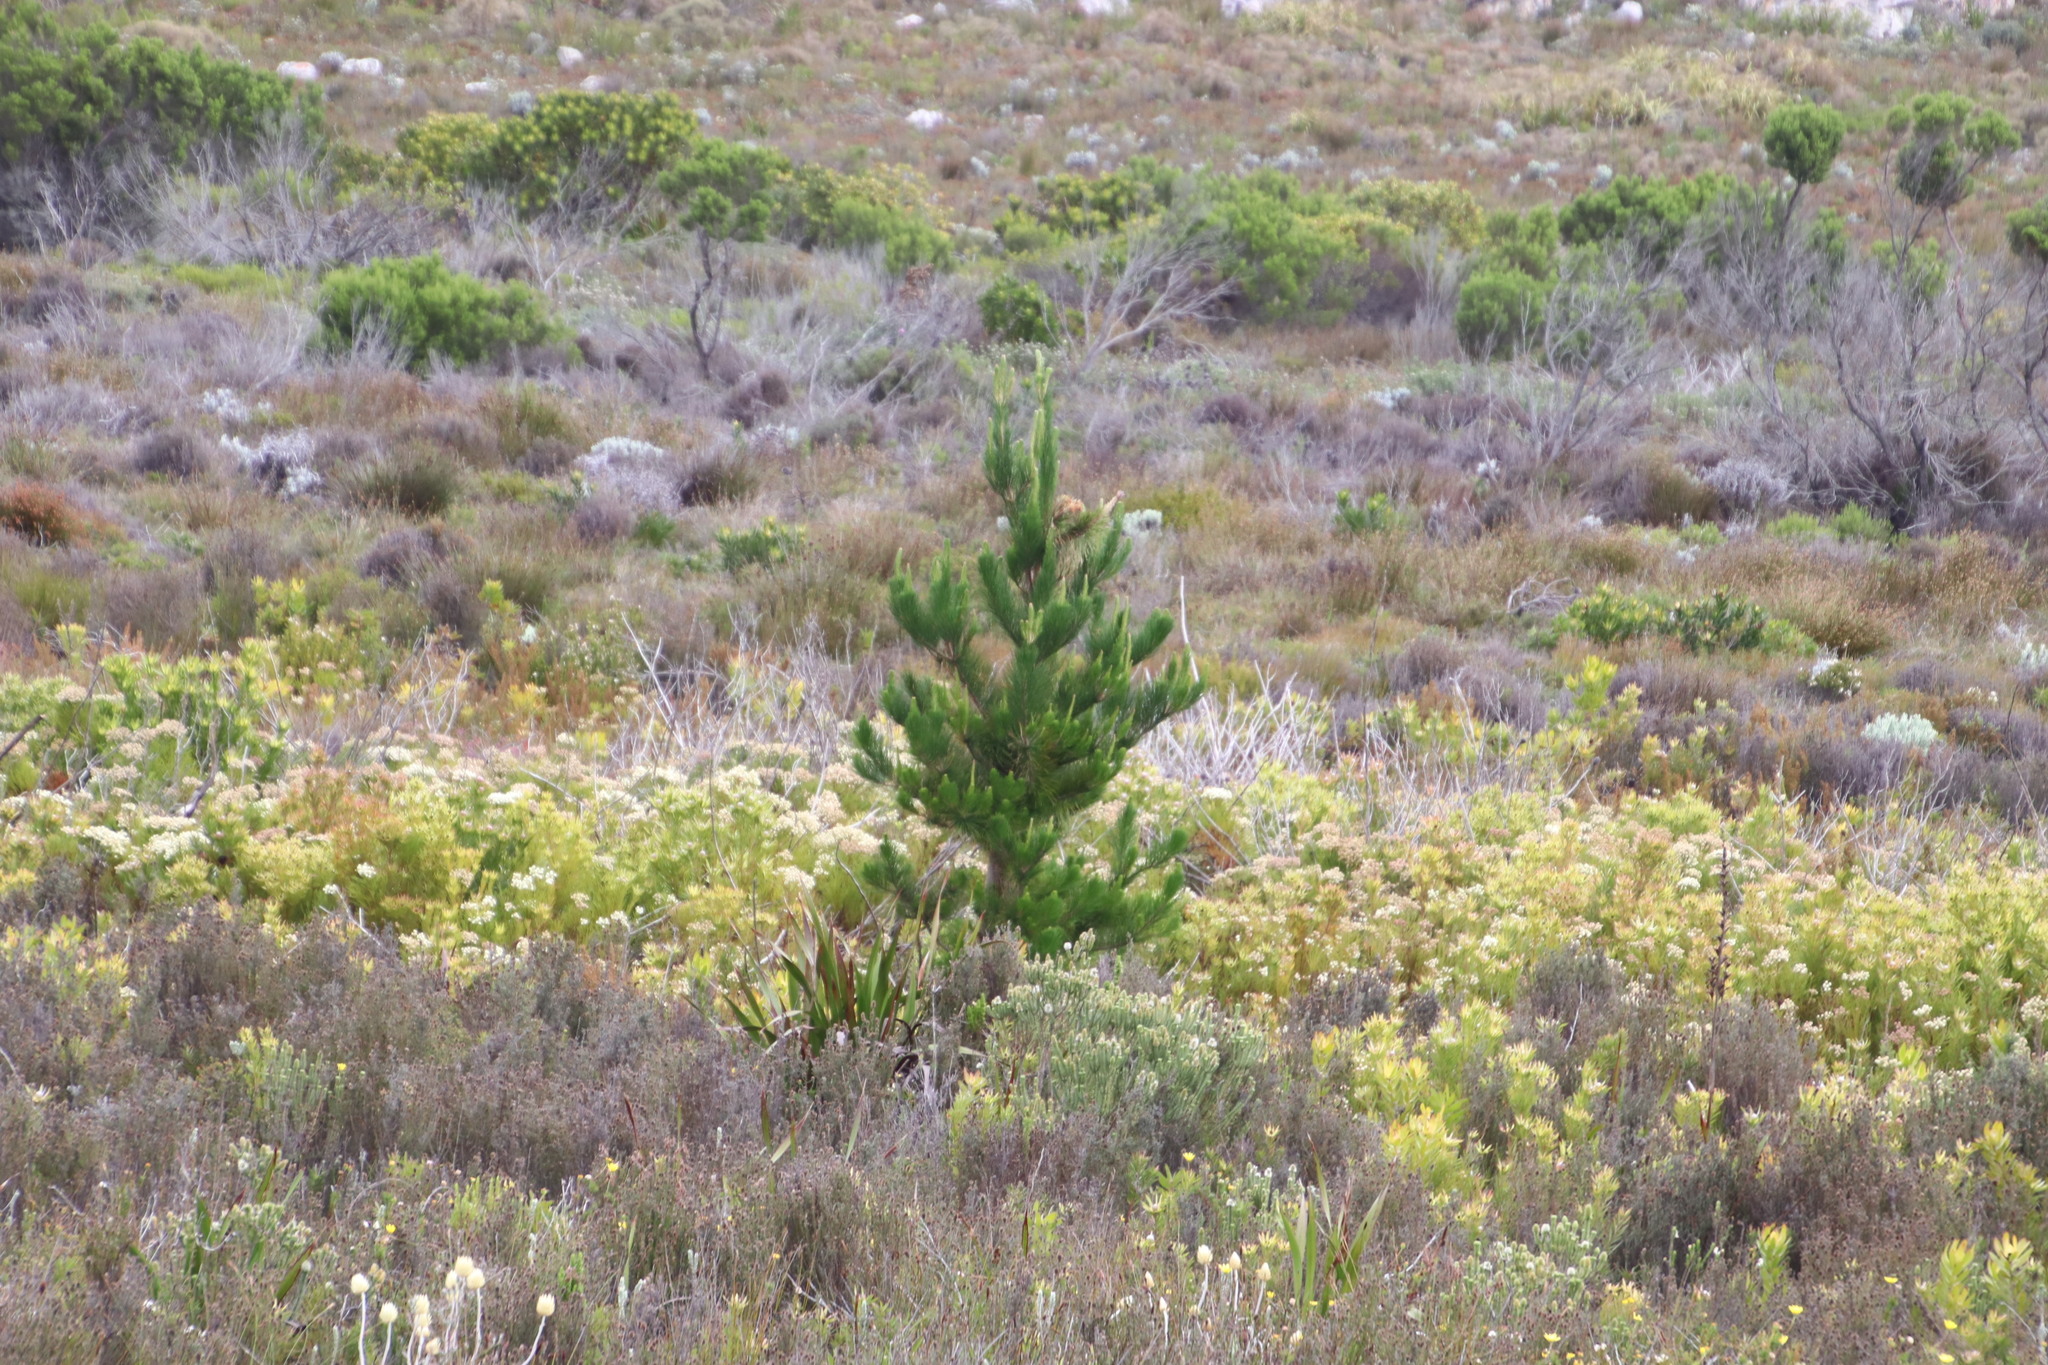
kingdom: Plantae
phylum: Tracheophyta
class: Pinopsida
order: Pinales
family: Pinaceae
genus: Pinus
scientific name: Pinus radiata
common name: Monterey pine
